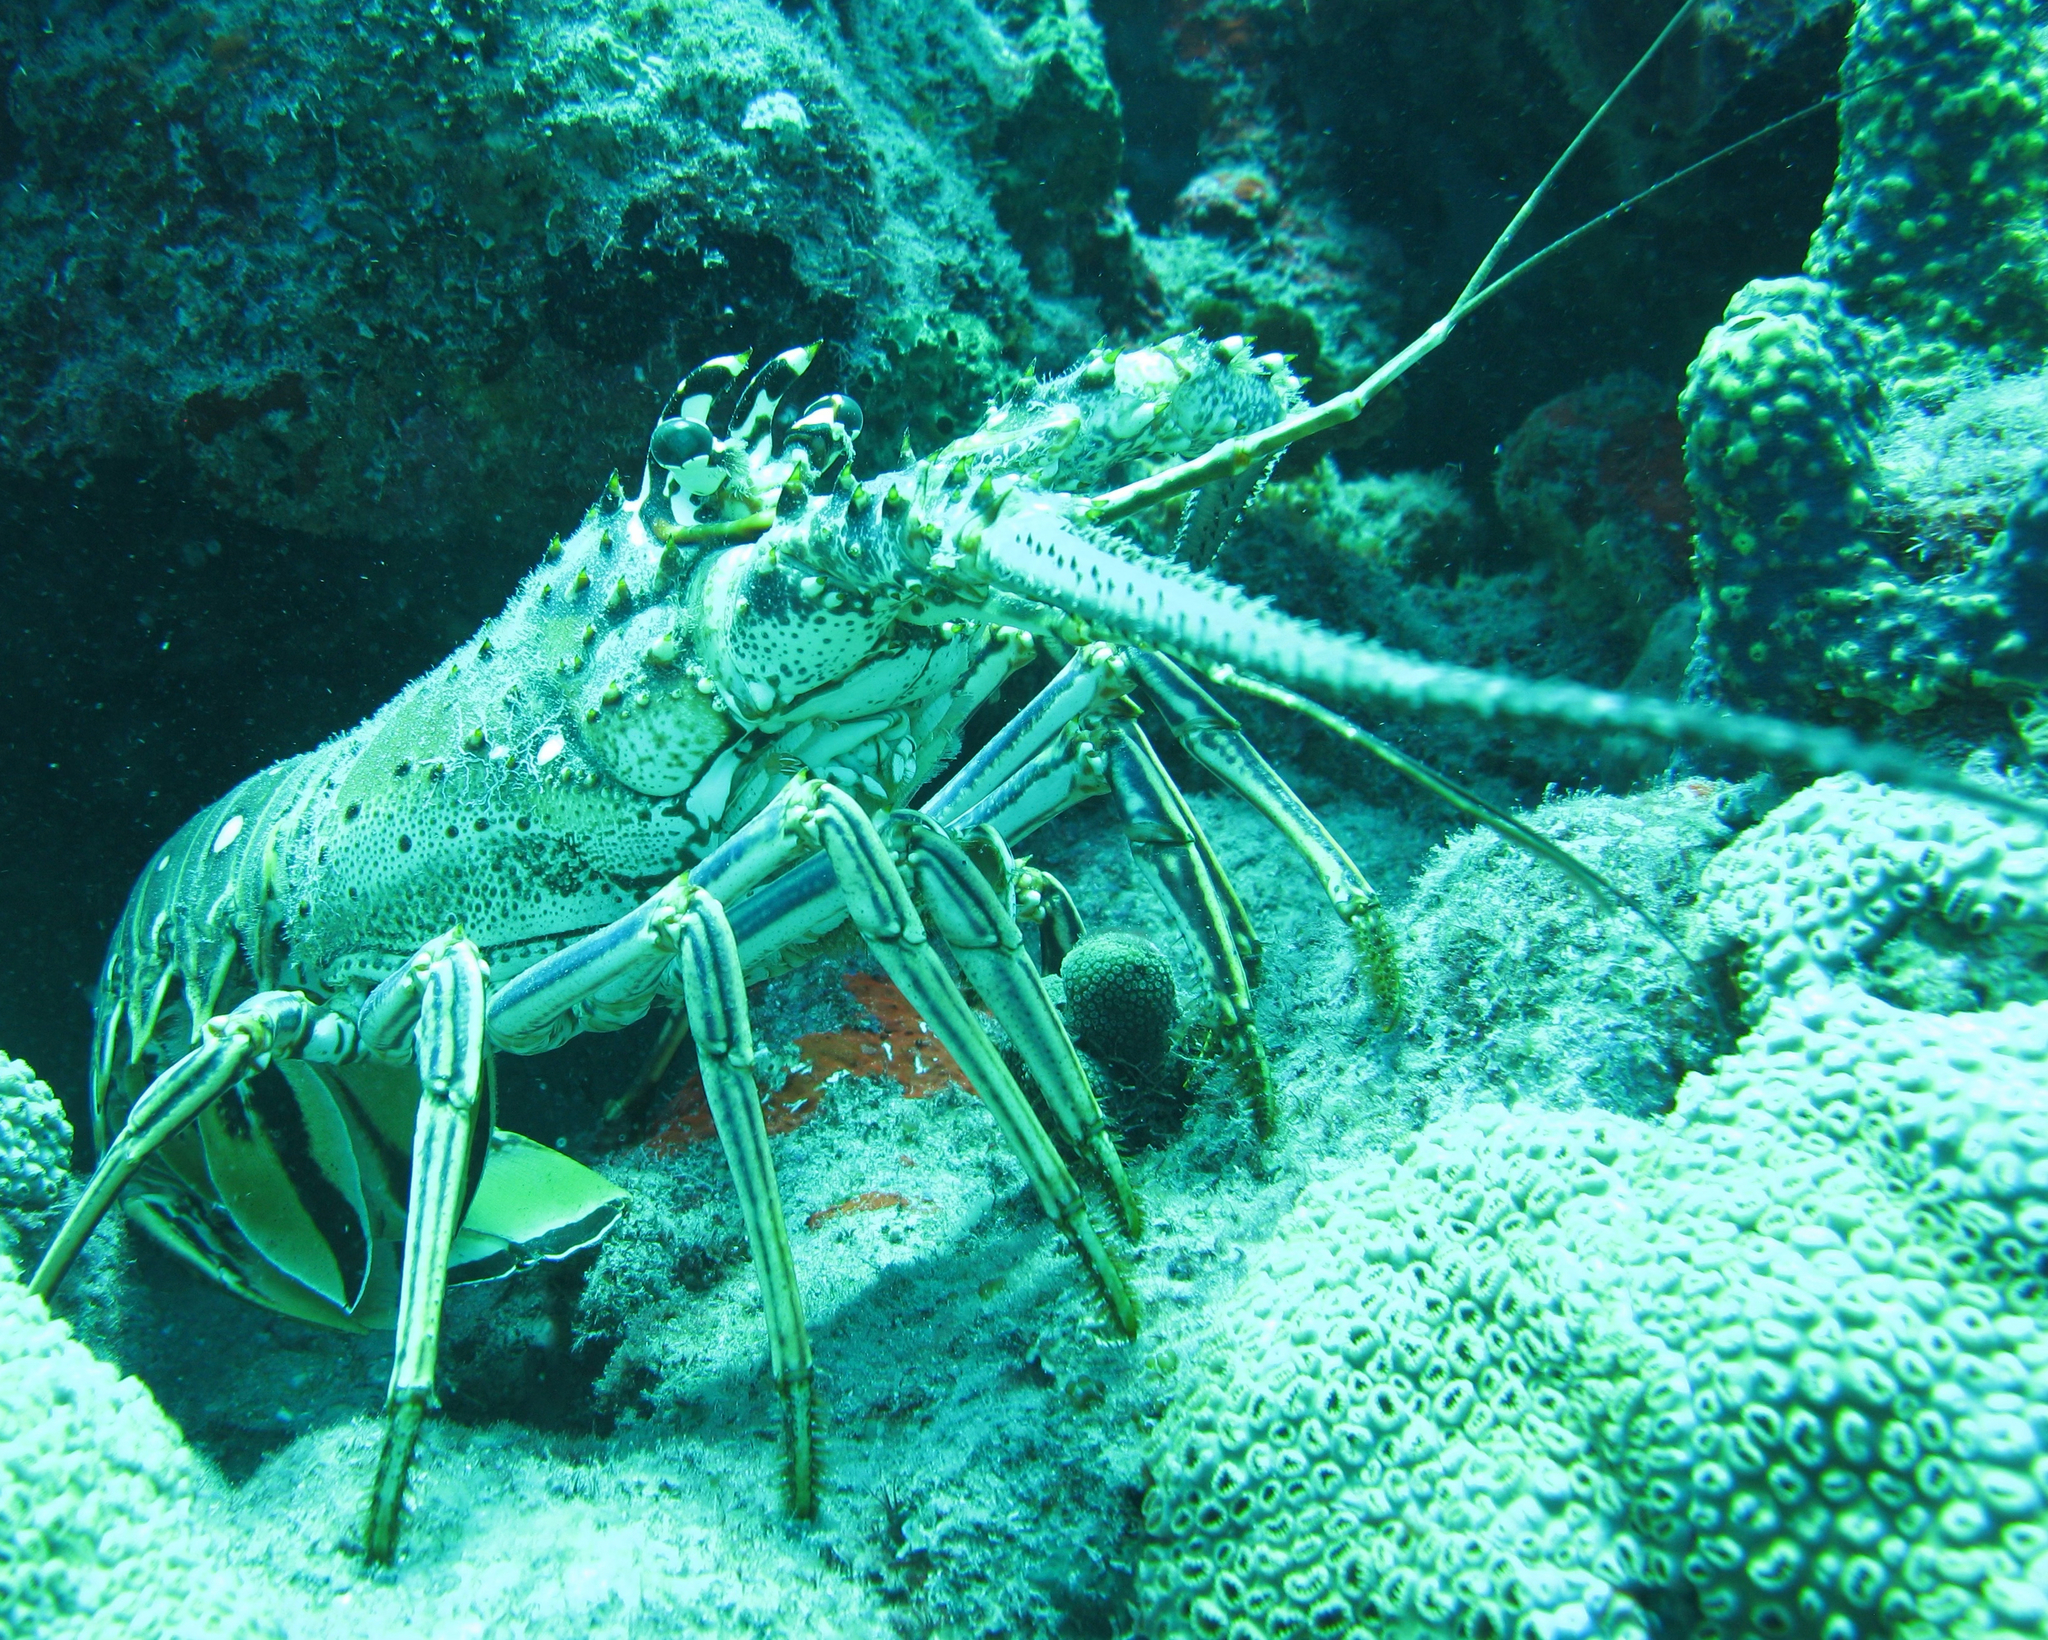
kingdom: Animalia
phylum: Arthropoda
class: Malacostraca
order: Decapoda
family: Palinuridae
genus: Panulirus
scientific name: Panulirus argus
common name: Caribbean spiny lobster
